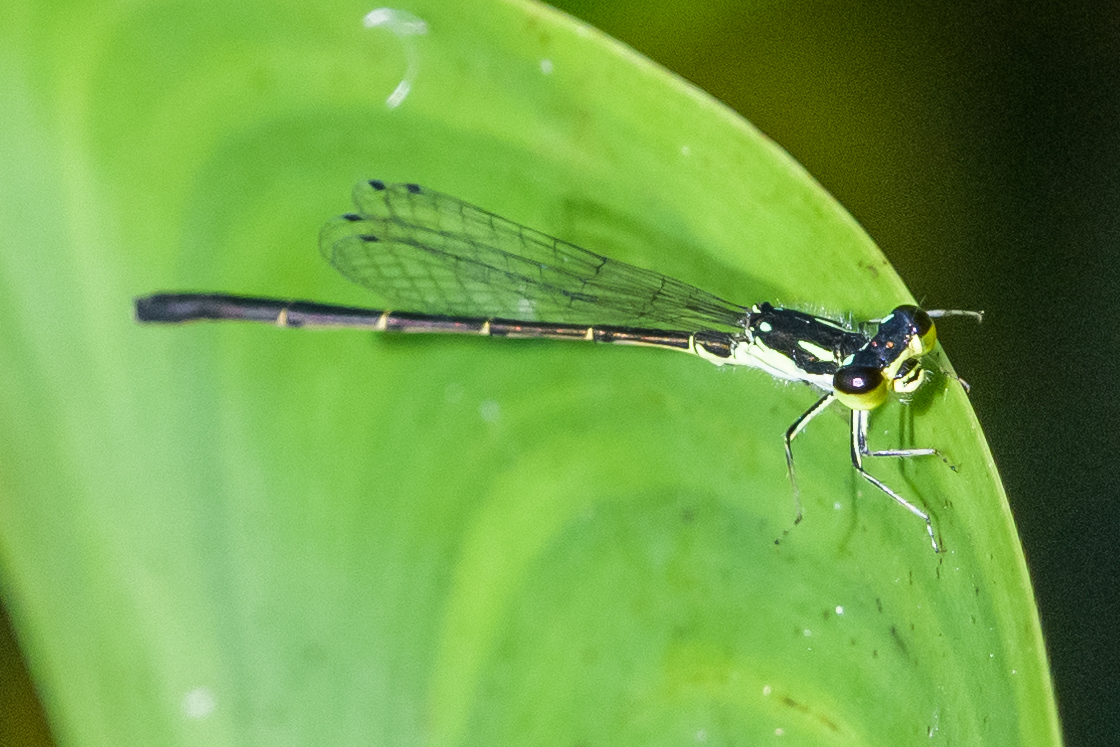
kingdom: Animalia
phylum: Arthropoda
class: Insecta
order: Odonata
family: Coenagrionidae
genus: Ischnura
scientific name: Ischnura posita
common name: Fragile forktail
